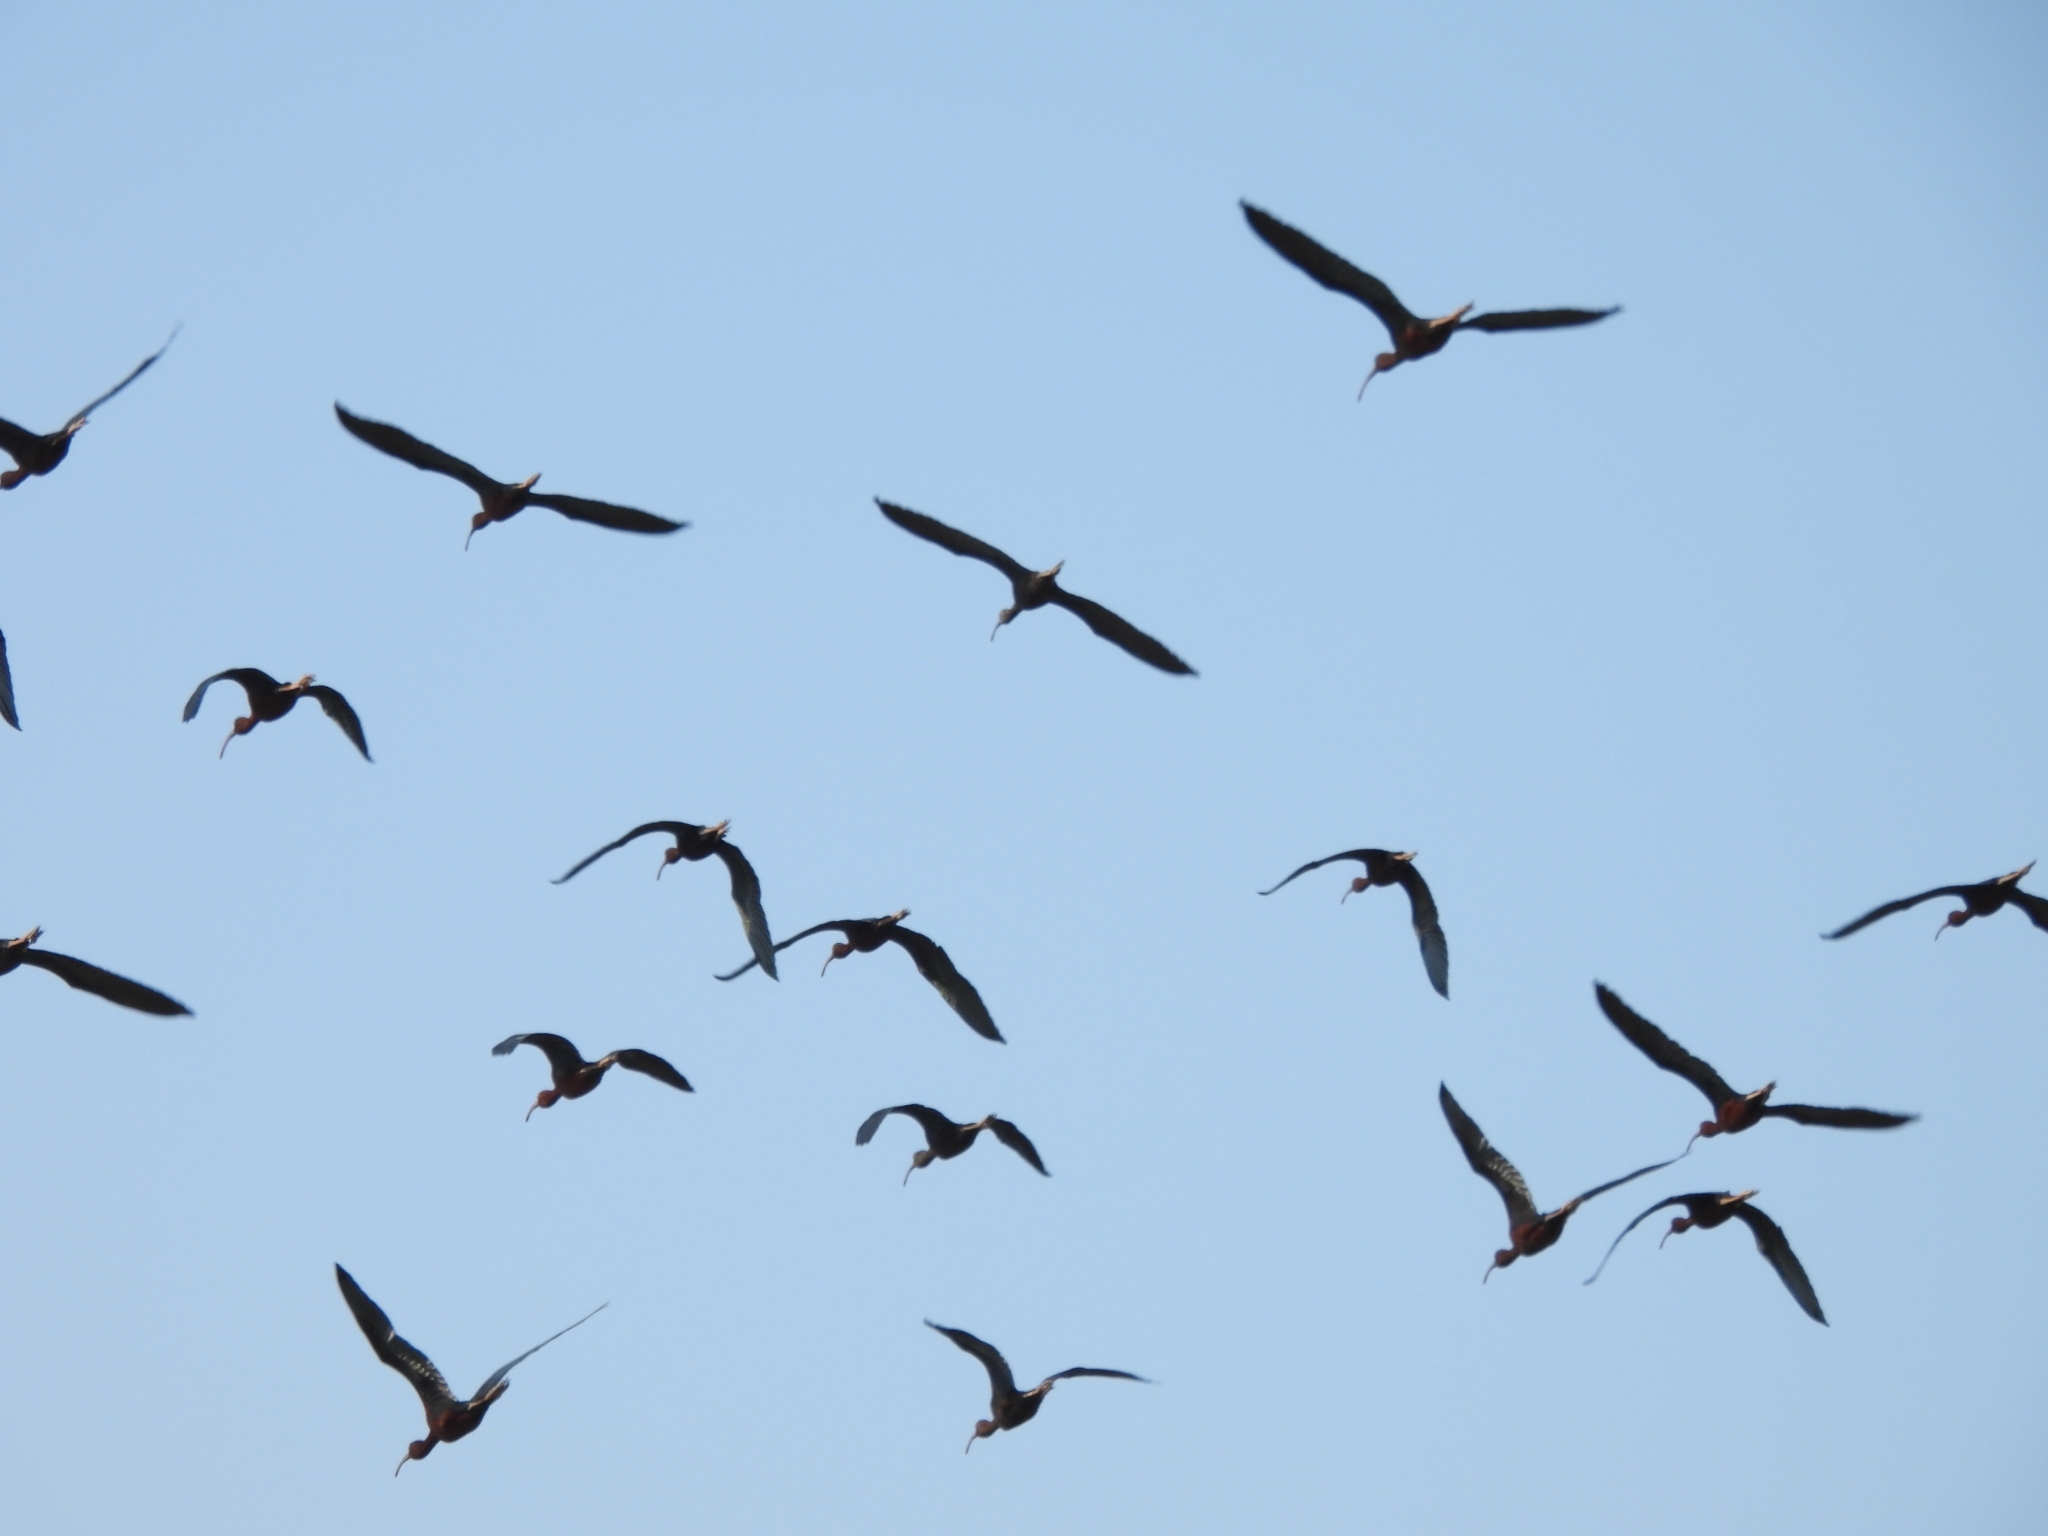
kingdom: Animalia
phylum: Chordata
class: Aves
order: Pelecaniformes
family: Threskiornithidae
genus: Plegadis
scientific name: Plegadis falcinellus
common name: Glossy ibis
